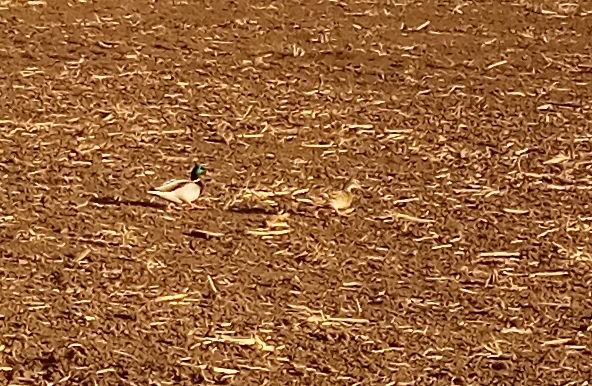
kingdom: Animalia
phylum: Chordata
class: Aves
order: Anseriformes
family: Anatidae
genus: Anas
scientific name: Anas platyrhynchos
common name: Mallard
